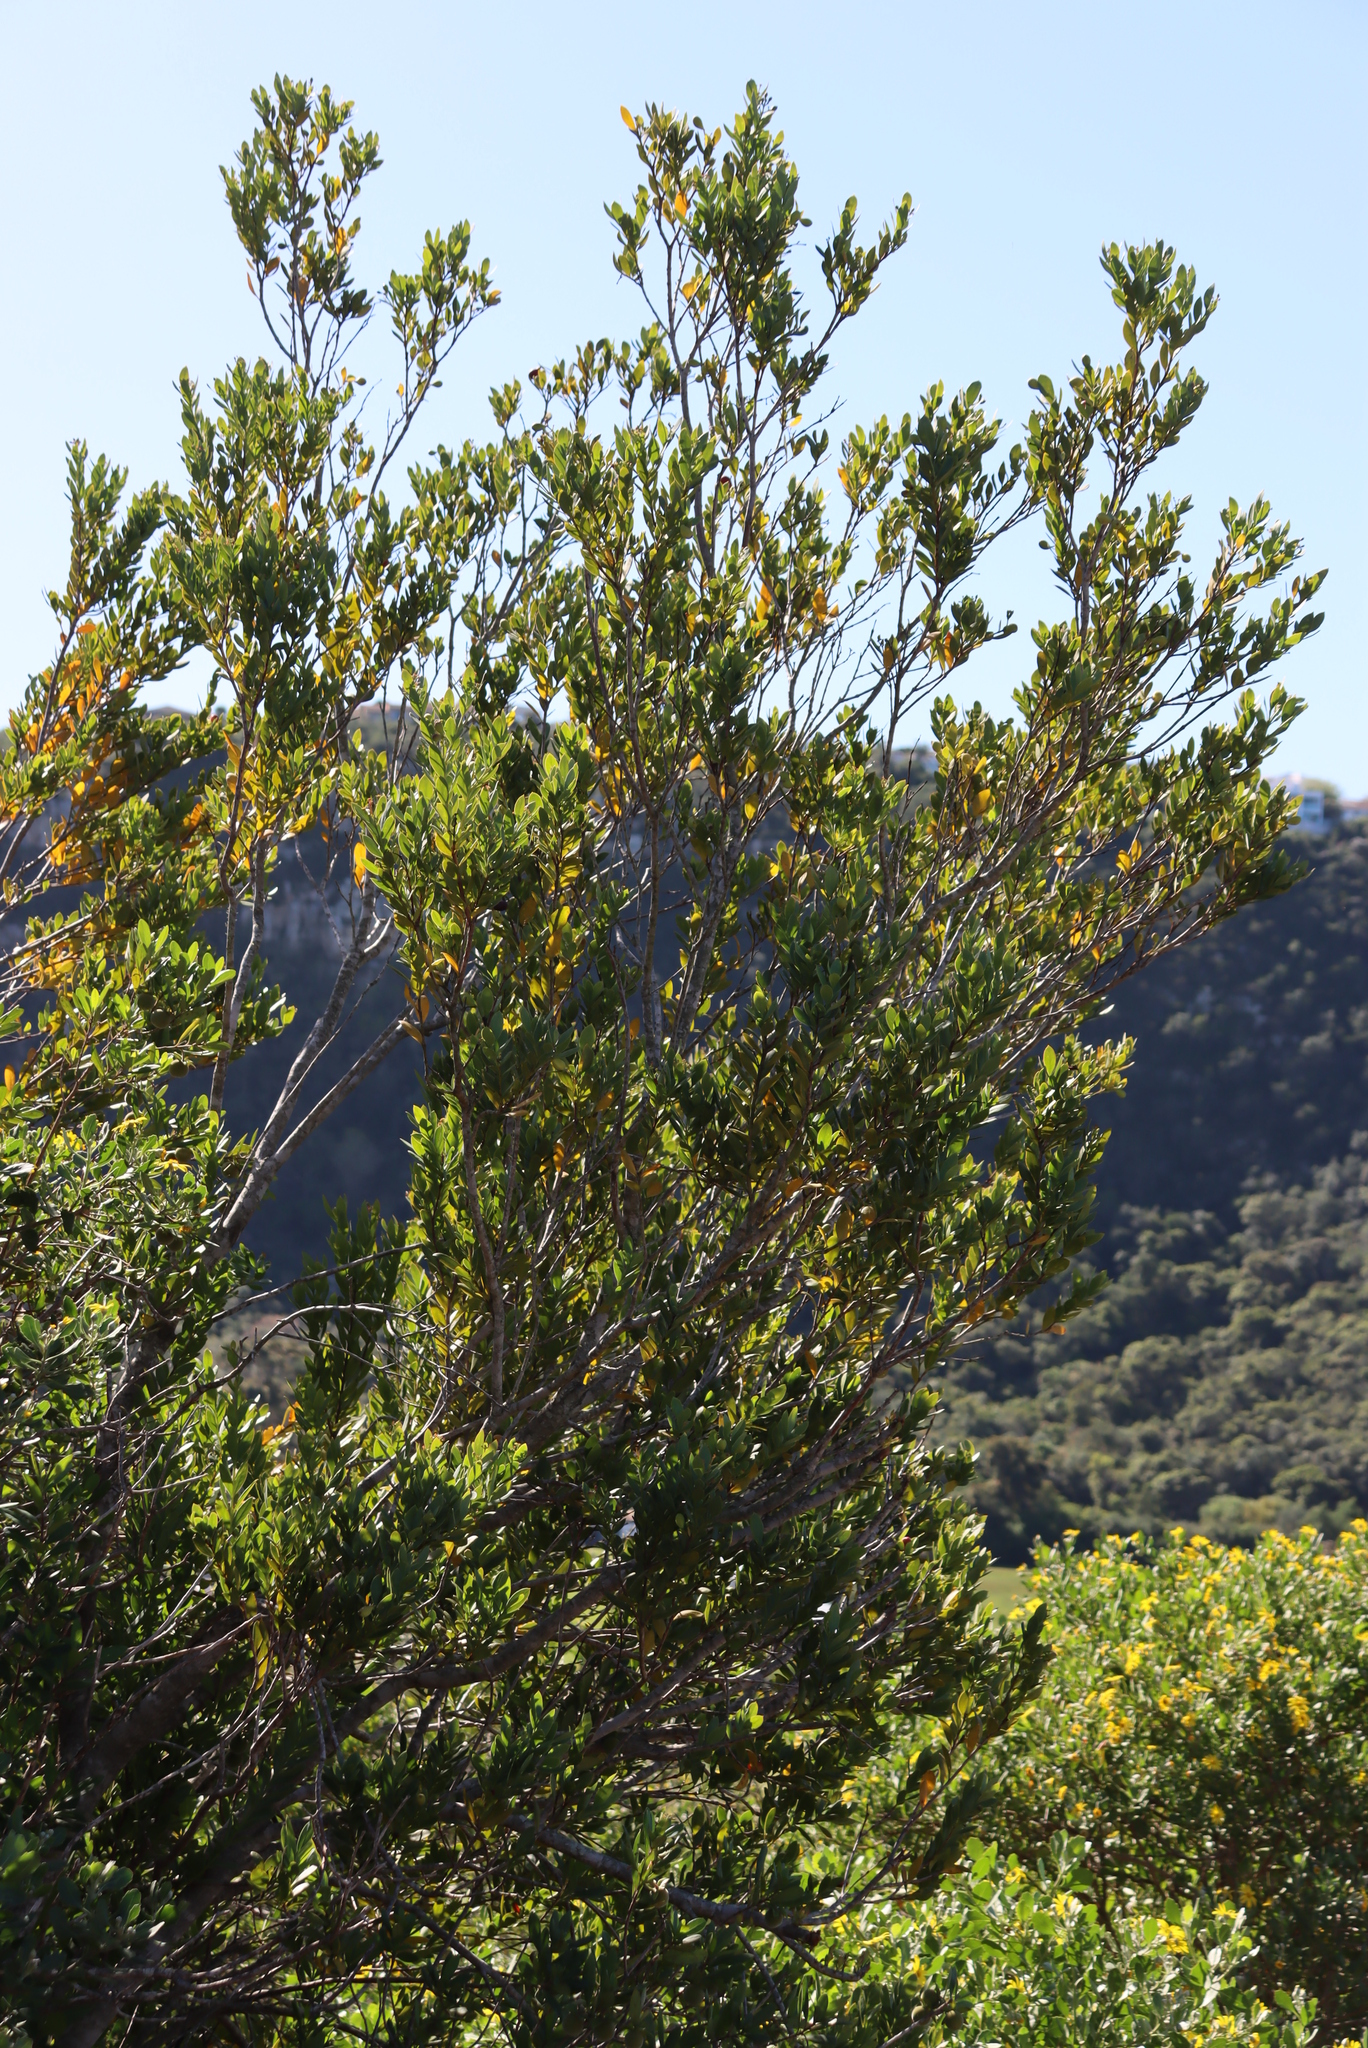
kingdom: Plantae
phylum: Tracheophyta
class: Magnoliopsida
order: Santalales
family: Santalaceae
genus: Osyris
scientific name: Osyris compressa
